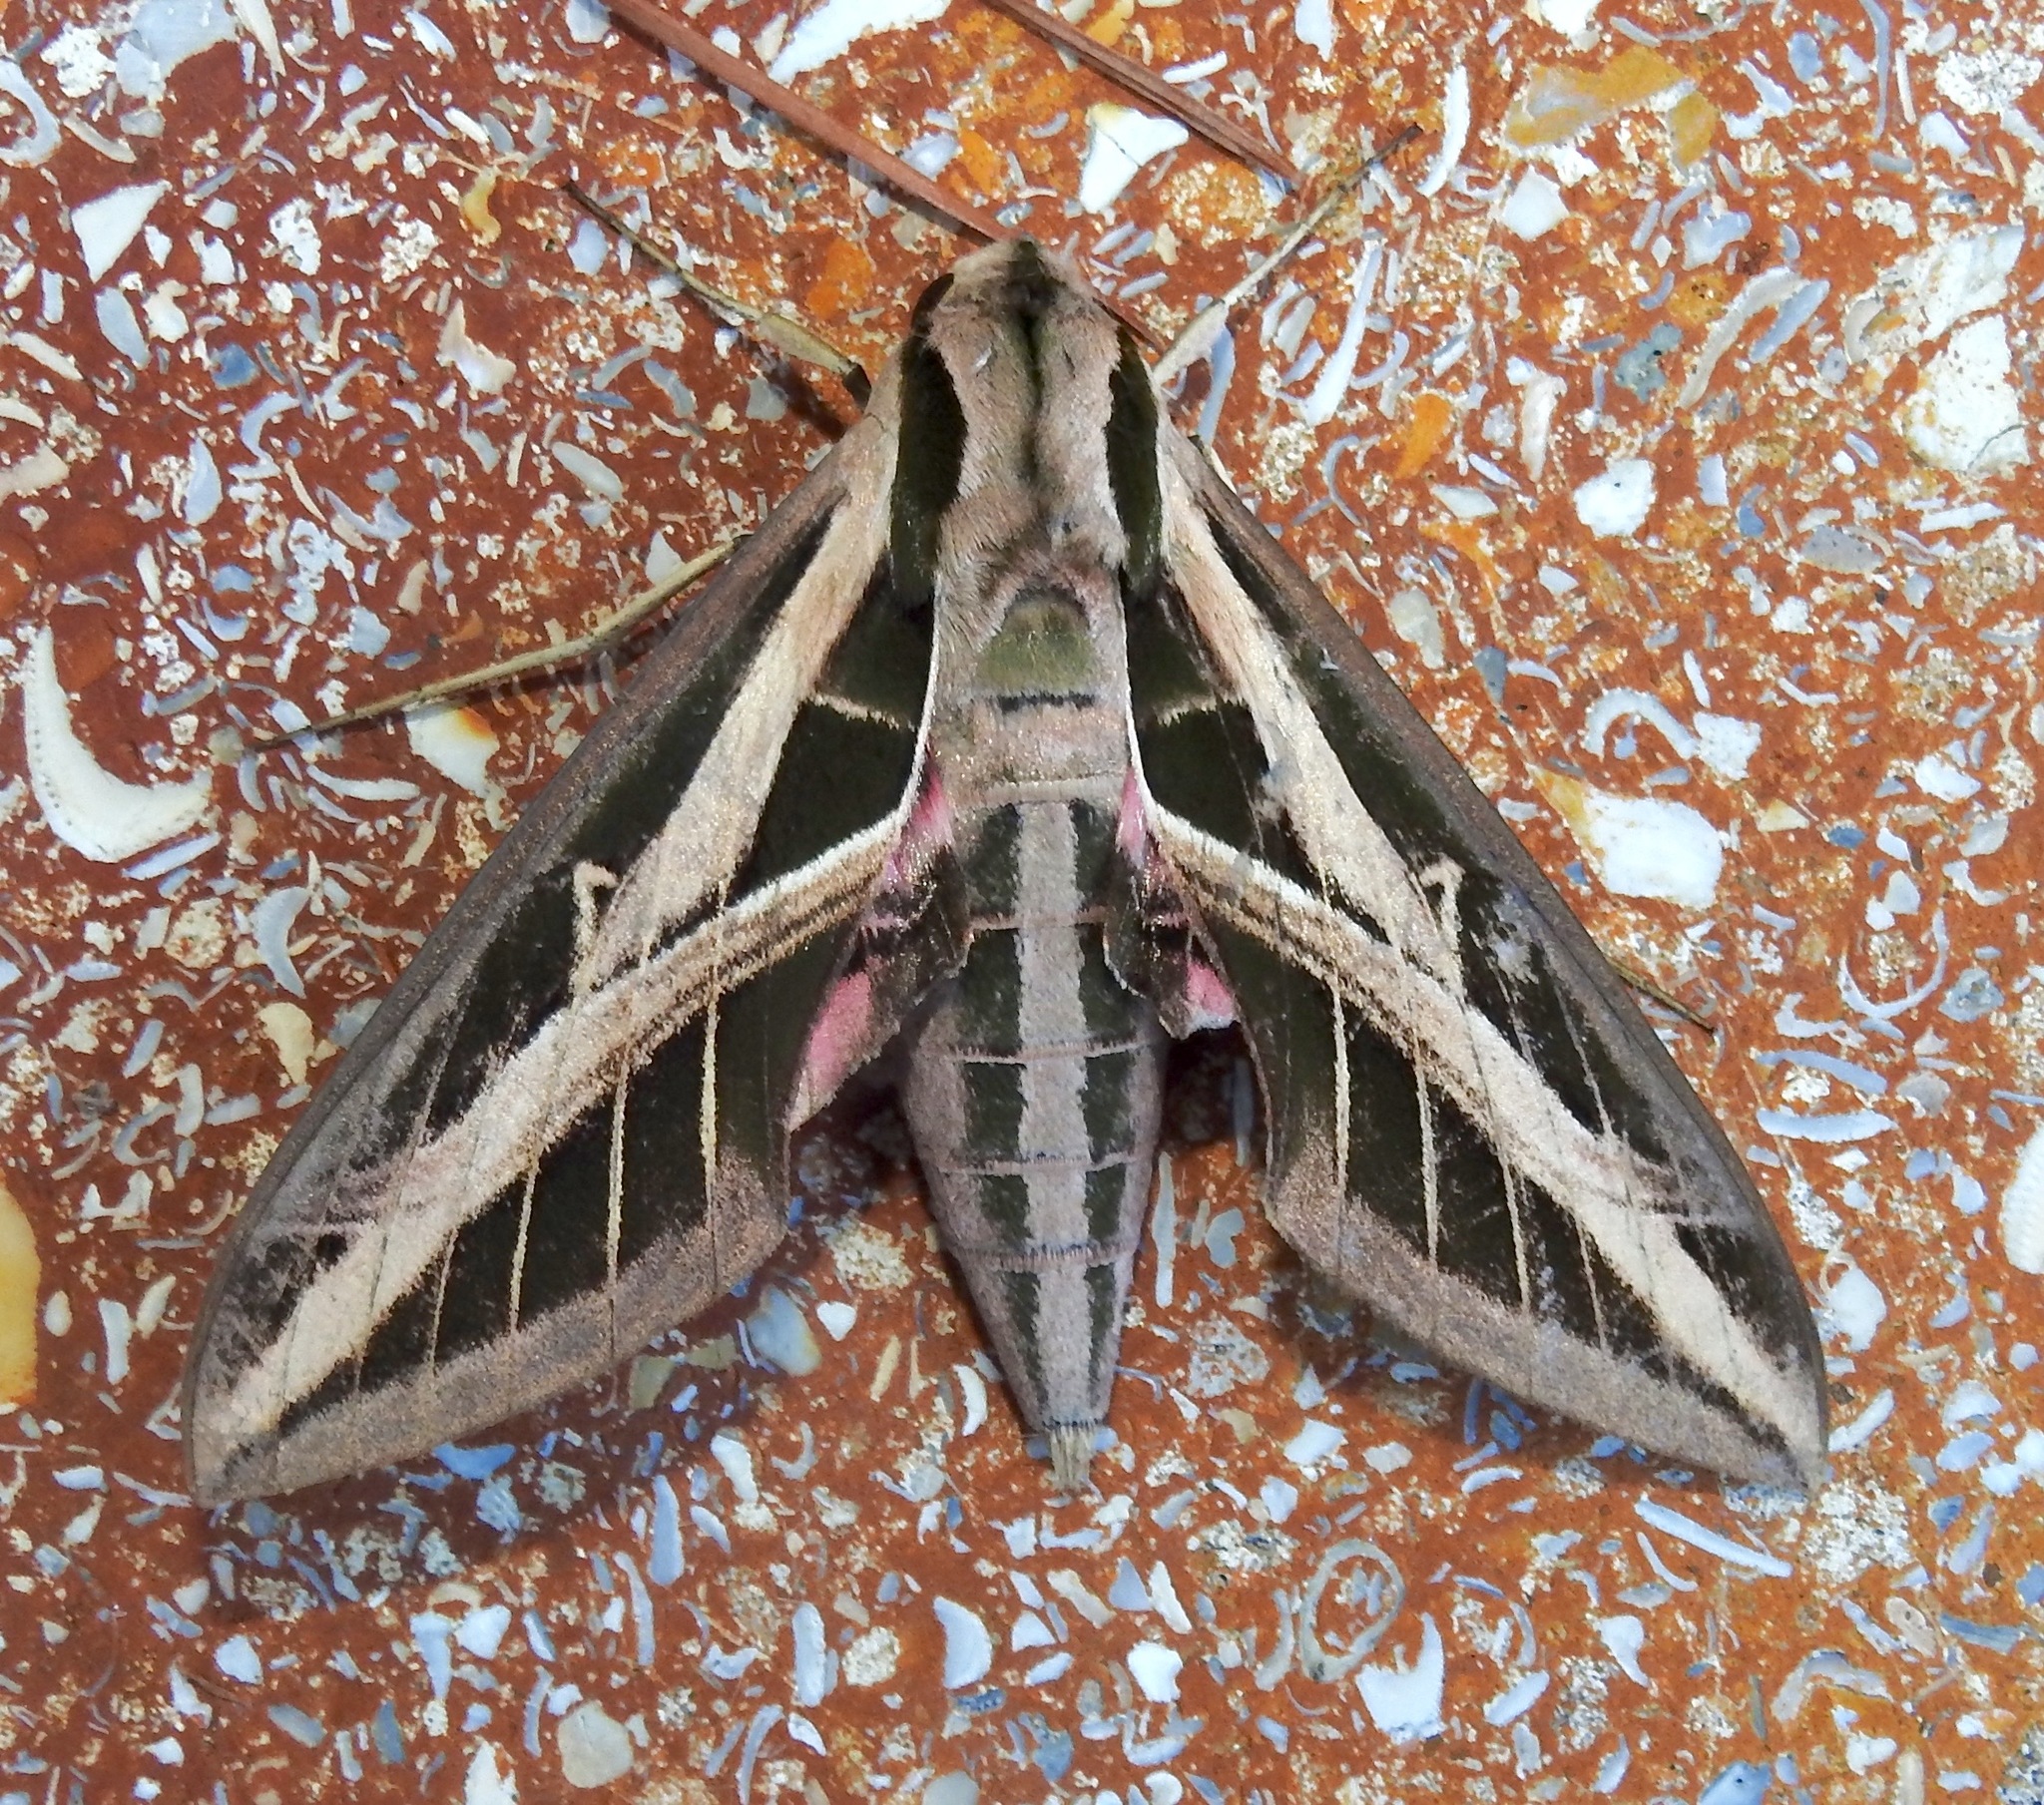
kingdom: Animalia
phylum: Arthropoda
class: Insecta
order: Lepidoptera
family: Sphingidae
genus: Eumorpha
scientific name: Eumorpha fasciatus
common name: Banded sphinx
